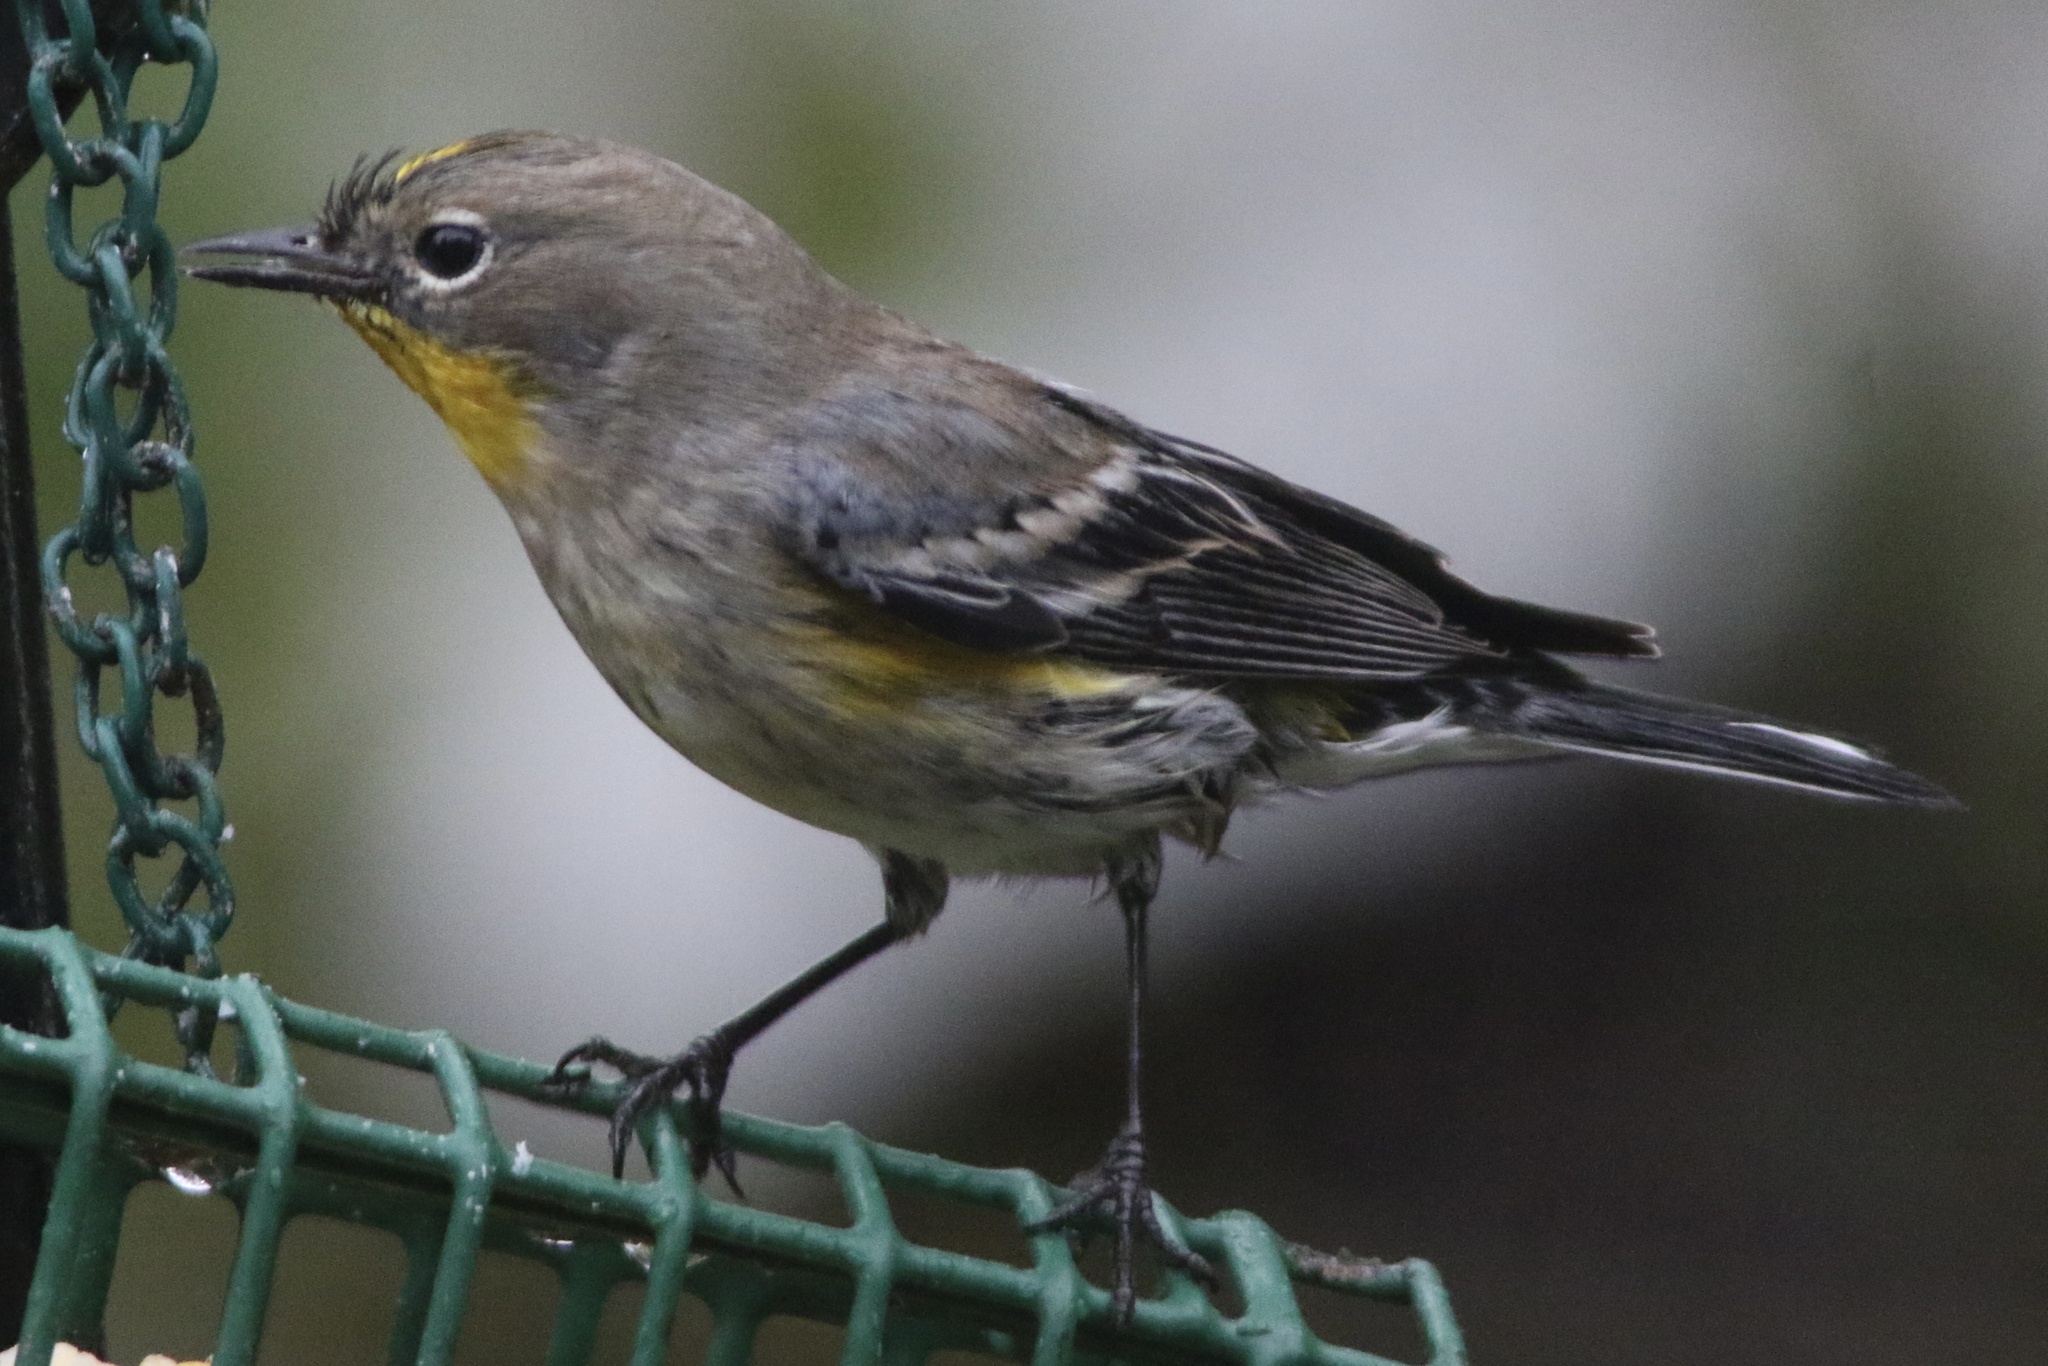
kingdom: Animalia
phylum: Chordata
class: Aves
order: Passeriformes
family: Parulidae
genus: Setophaga
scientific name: Setophaga coronata
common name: Myrtle warbler
